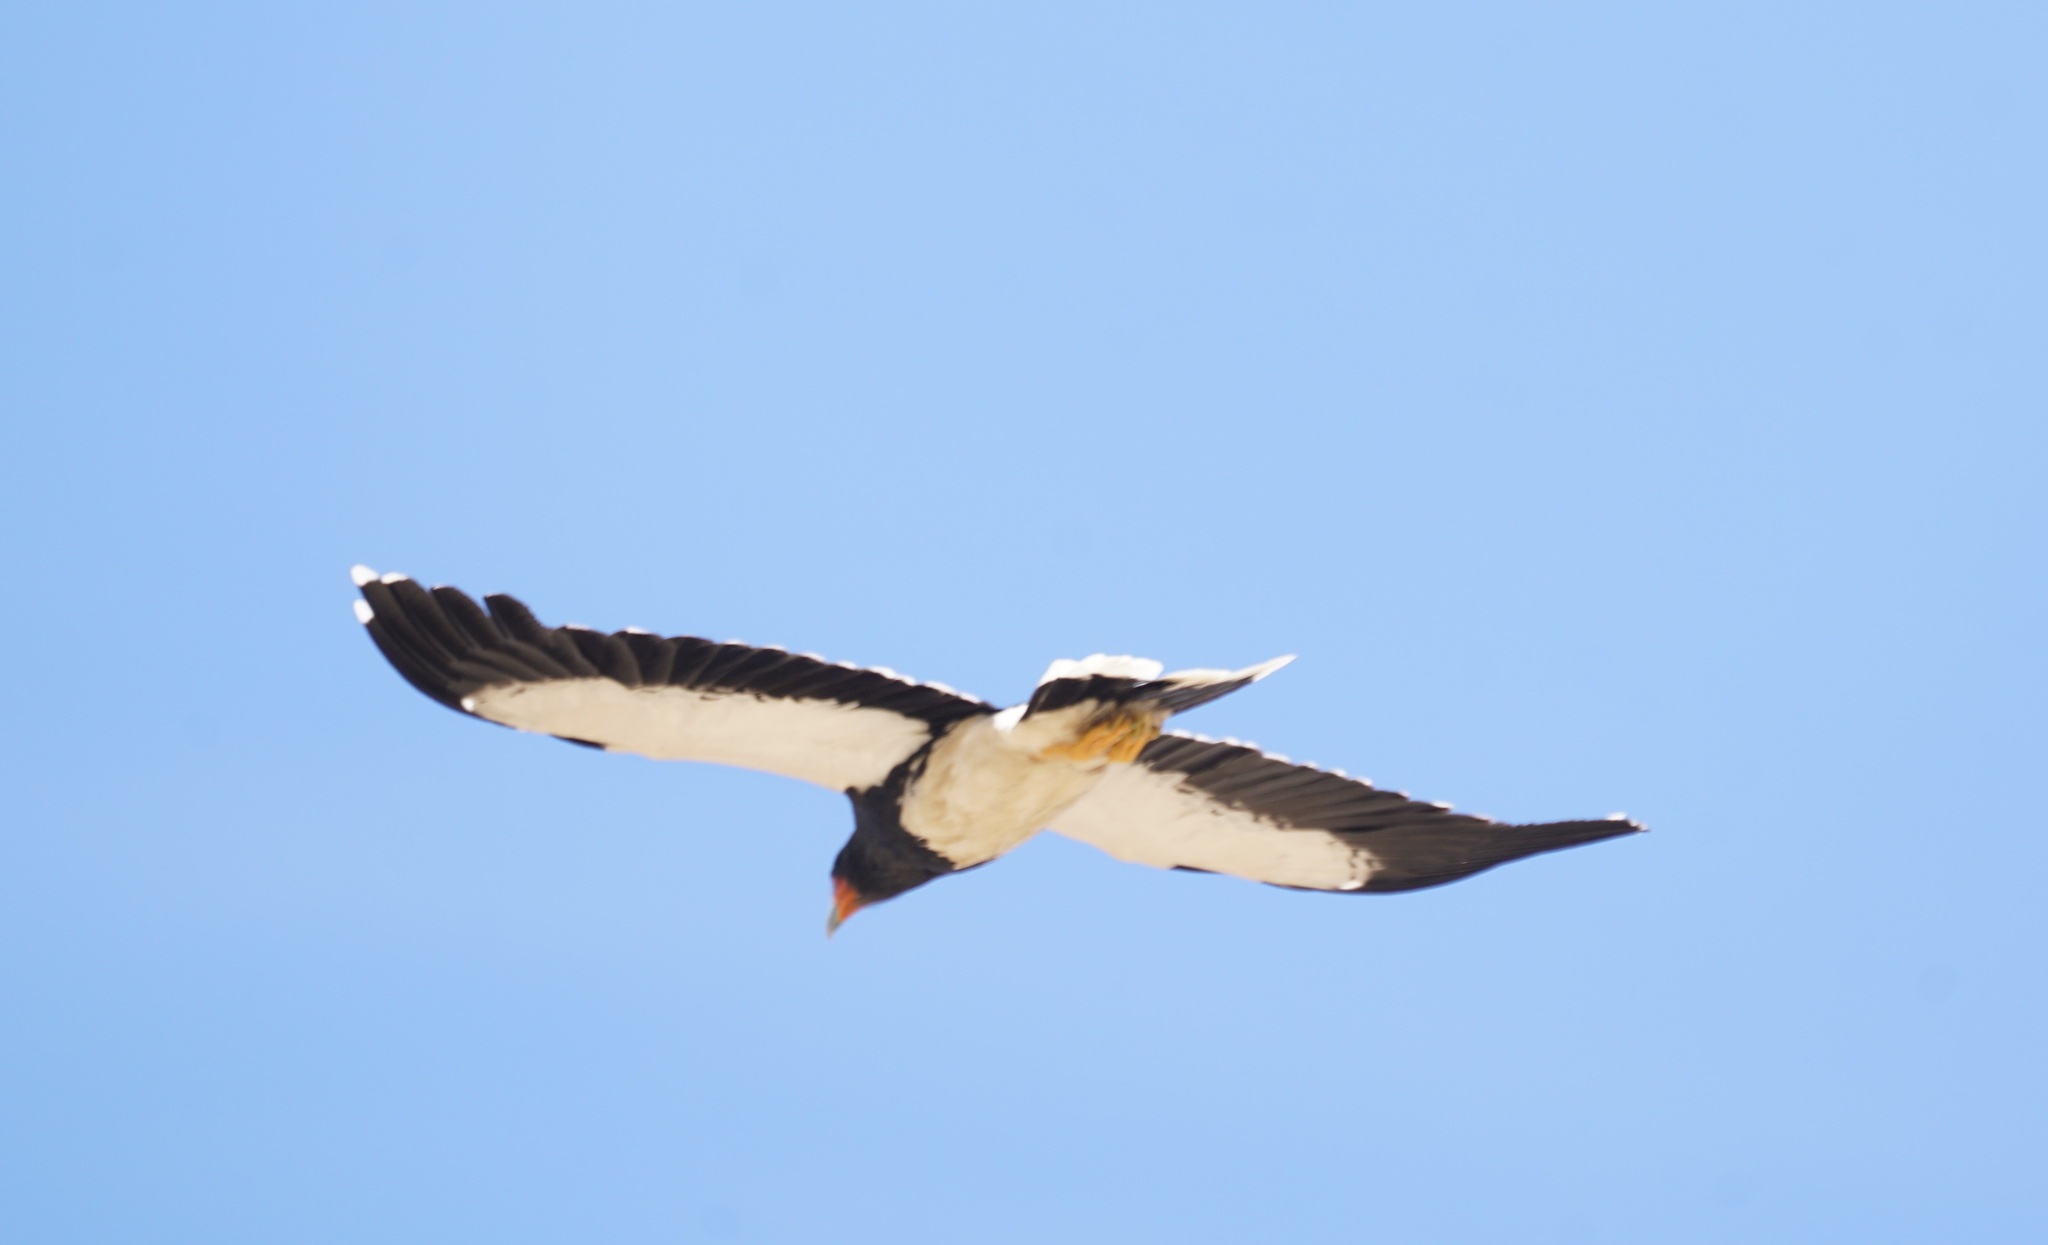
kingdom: Animalia
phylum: Chordata
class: Aves
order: Falconiformes
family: Falconidae
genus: Daptrius
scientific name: Daptrius
